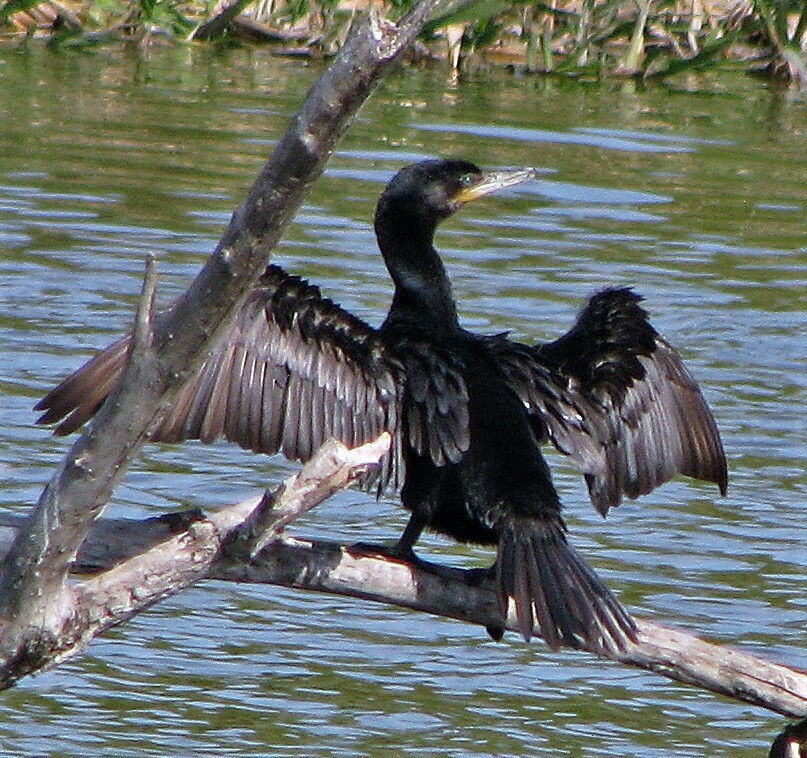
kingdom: Animalia
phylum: Chordata
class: Aves
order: Suliformes
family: Phalacrocoracidae
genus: Phalacrocorax
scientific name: Phalacrocorax brasilianus
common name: Neotropic cormorant
